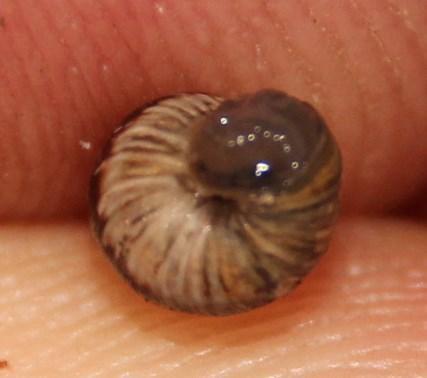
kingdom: Animalia
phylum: Mollusca
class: Gastropoda
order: Stylommatophora
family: Geomitridae
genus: Cochlicella
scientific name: Cochlicella barbara
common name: Potbellied helicellid
